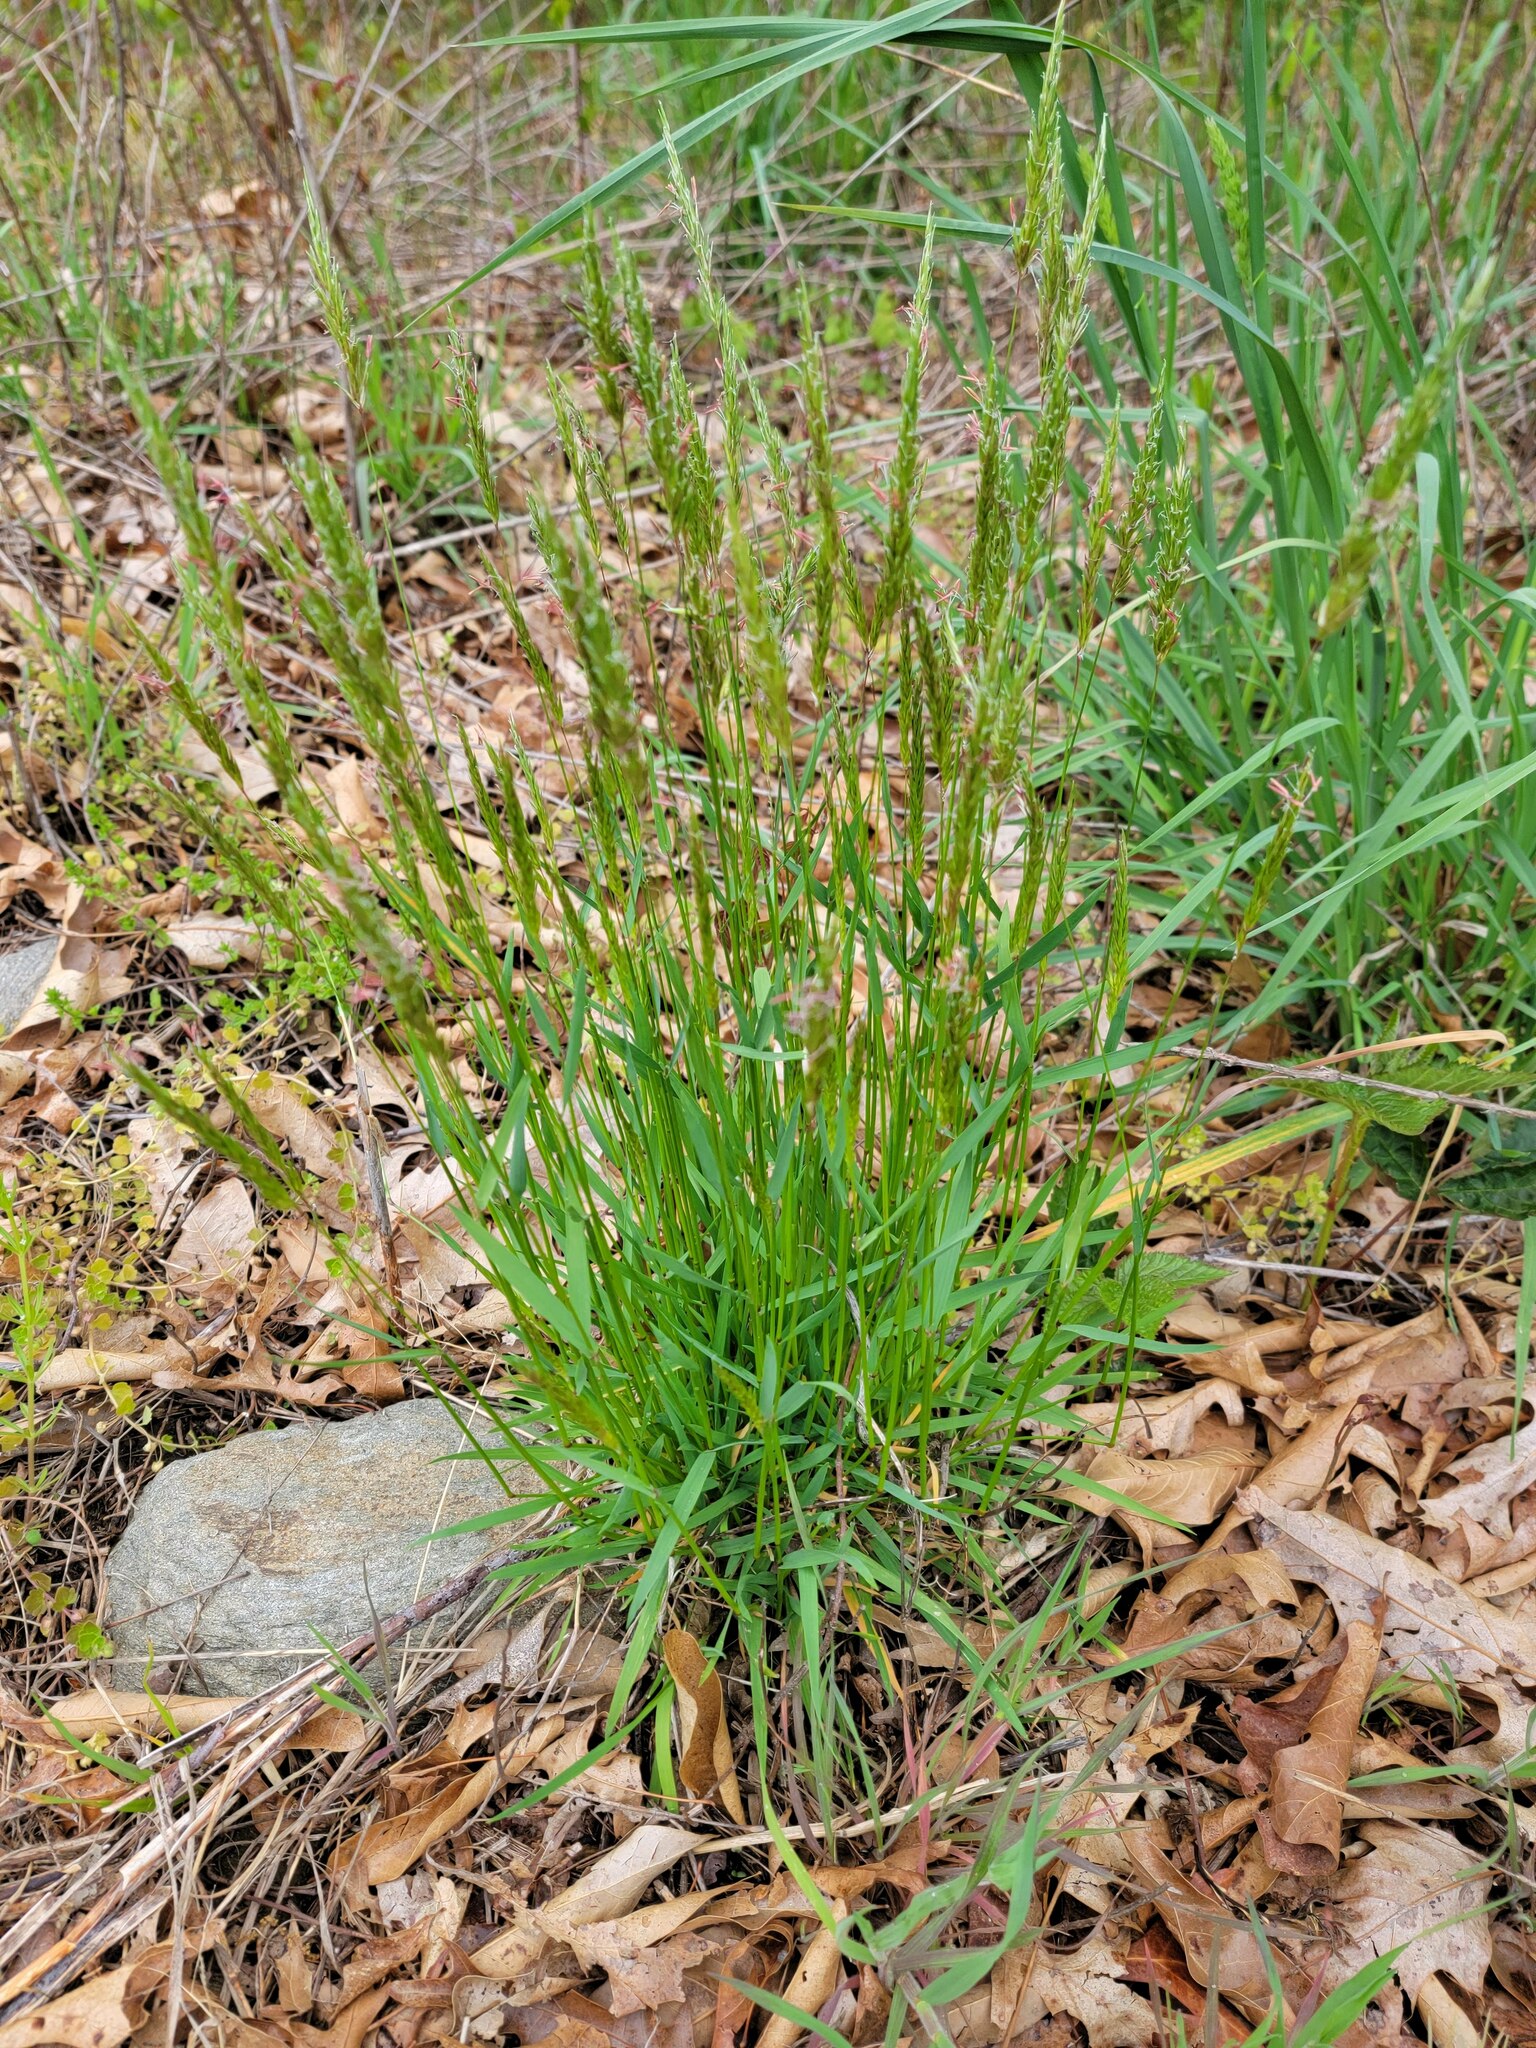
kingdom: Plantae
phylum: Tracheophyta
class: Liliopsida
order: Poales
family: Poaceae
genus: Anthoxanthum
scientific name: Anthoxanthum odoratum
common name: Sweet vernalgrass
